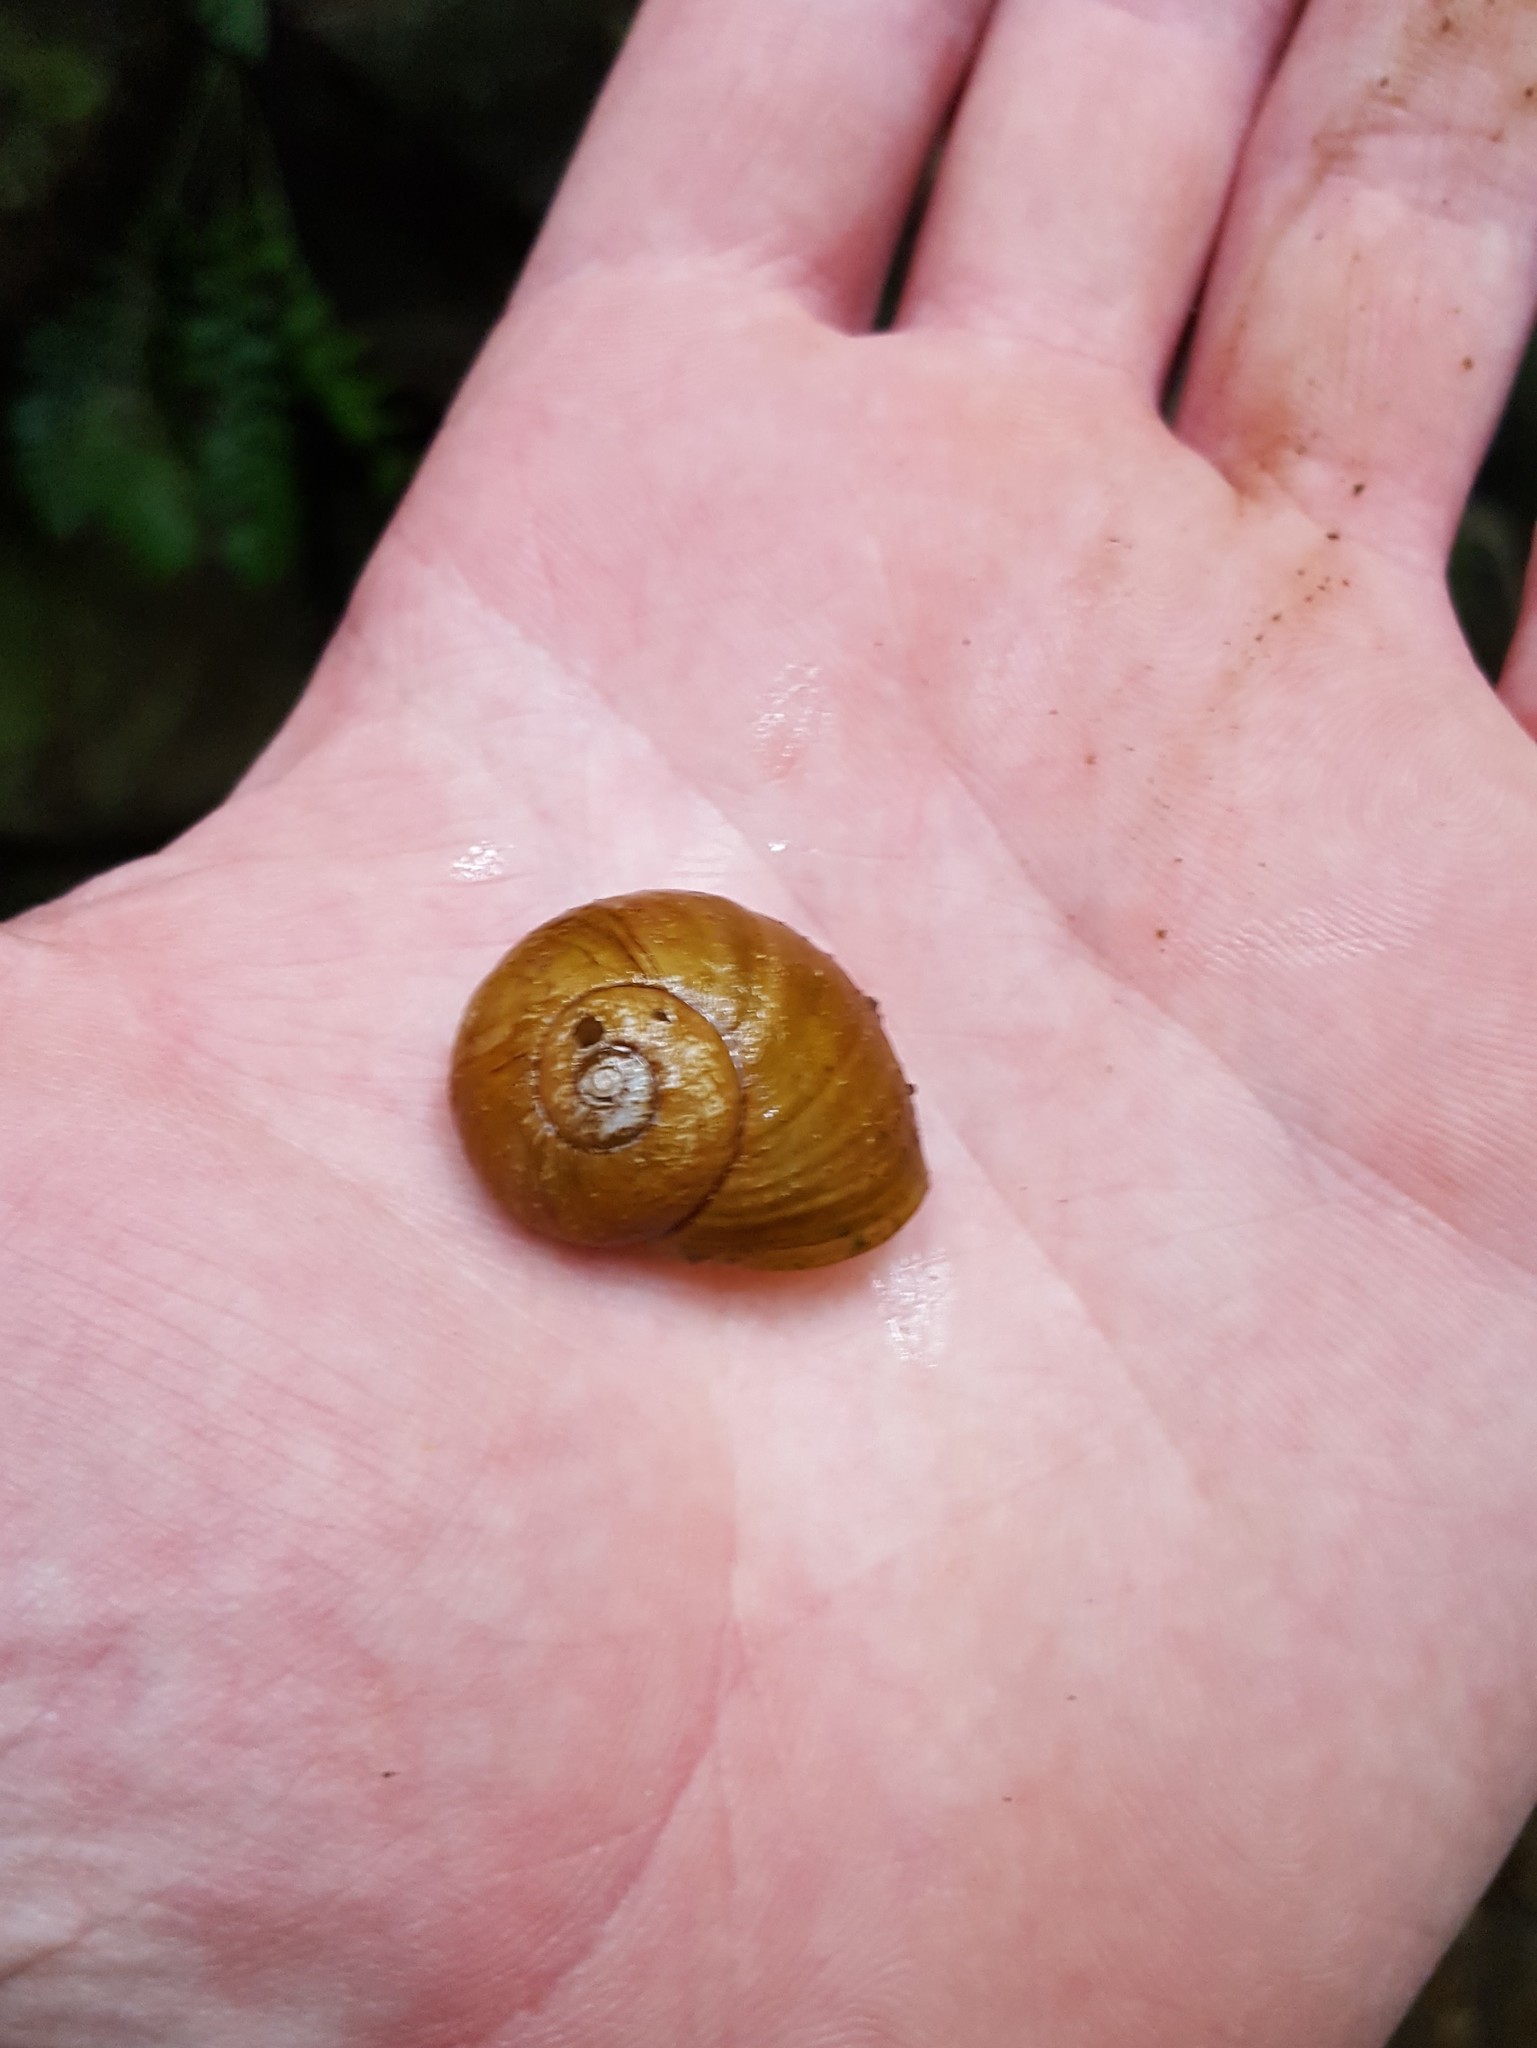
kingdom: Animalia
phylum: Mollusca
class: Gastropoda
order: Stylommatophora
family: Rhytididae
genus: Rhytida
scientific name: Rhytida greenwoodi
